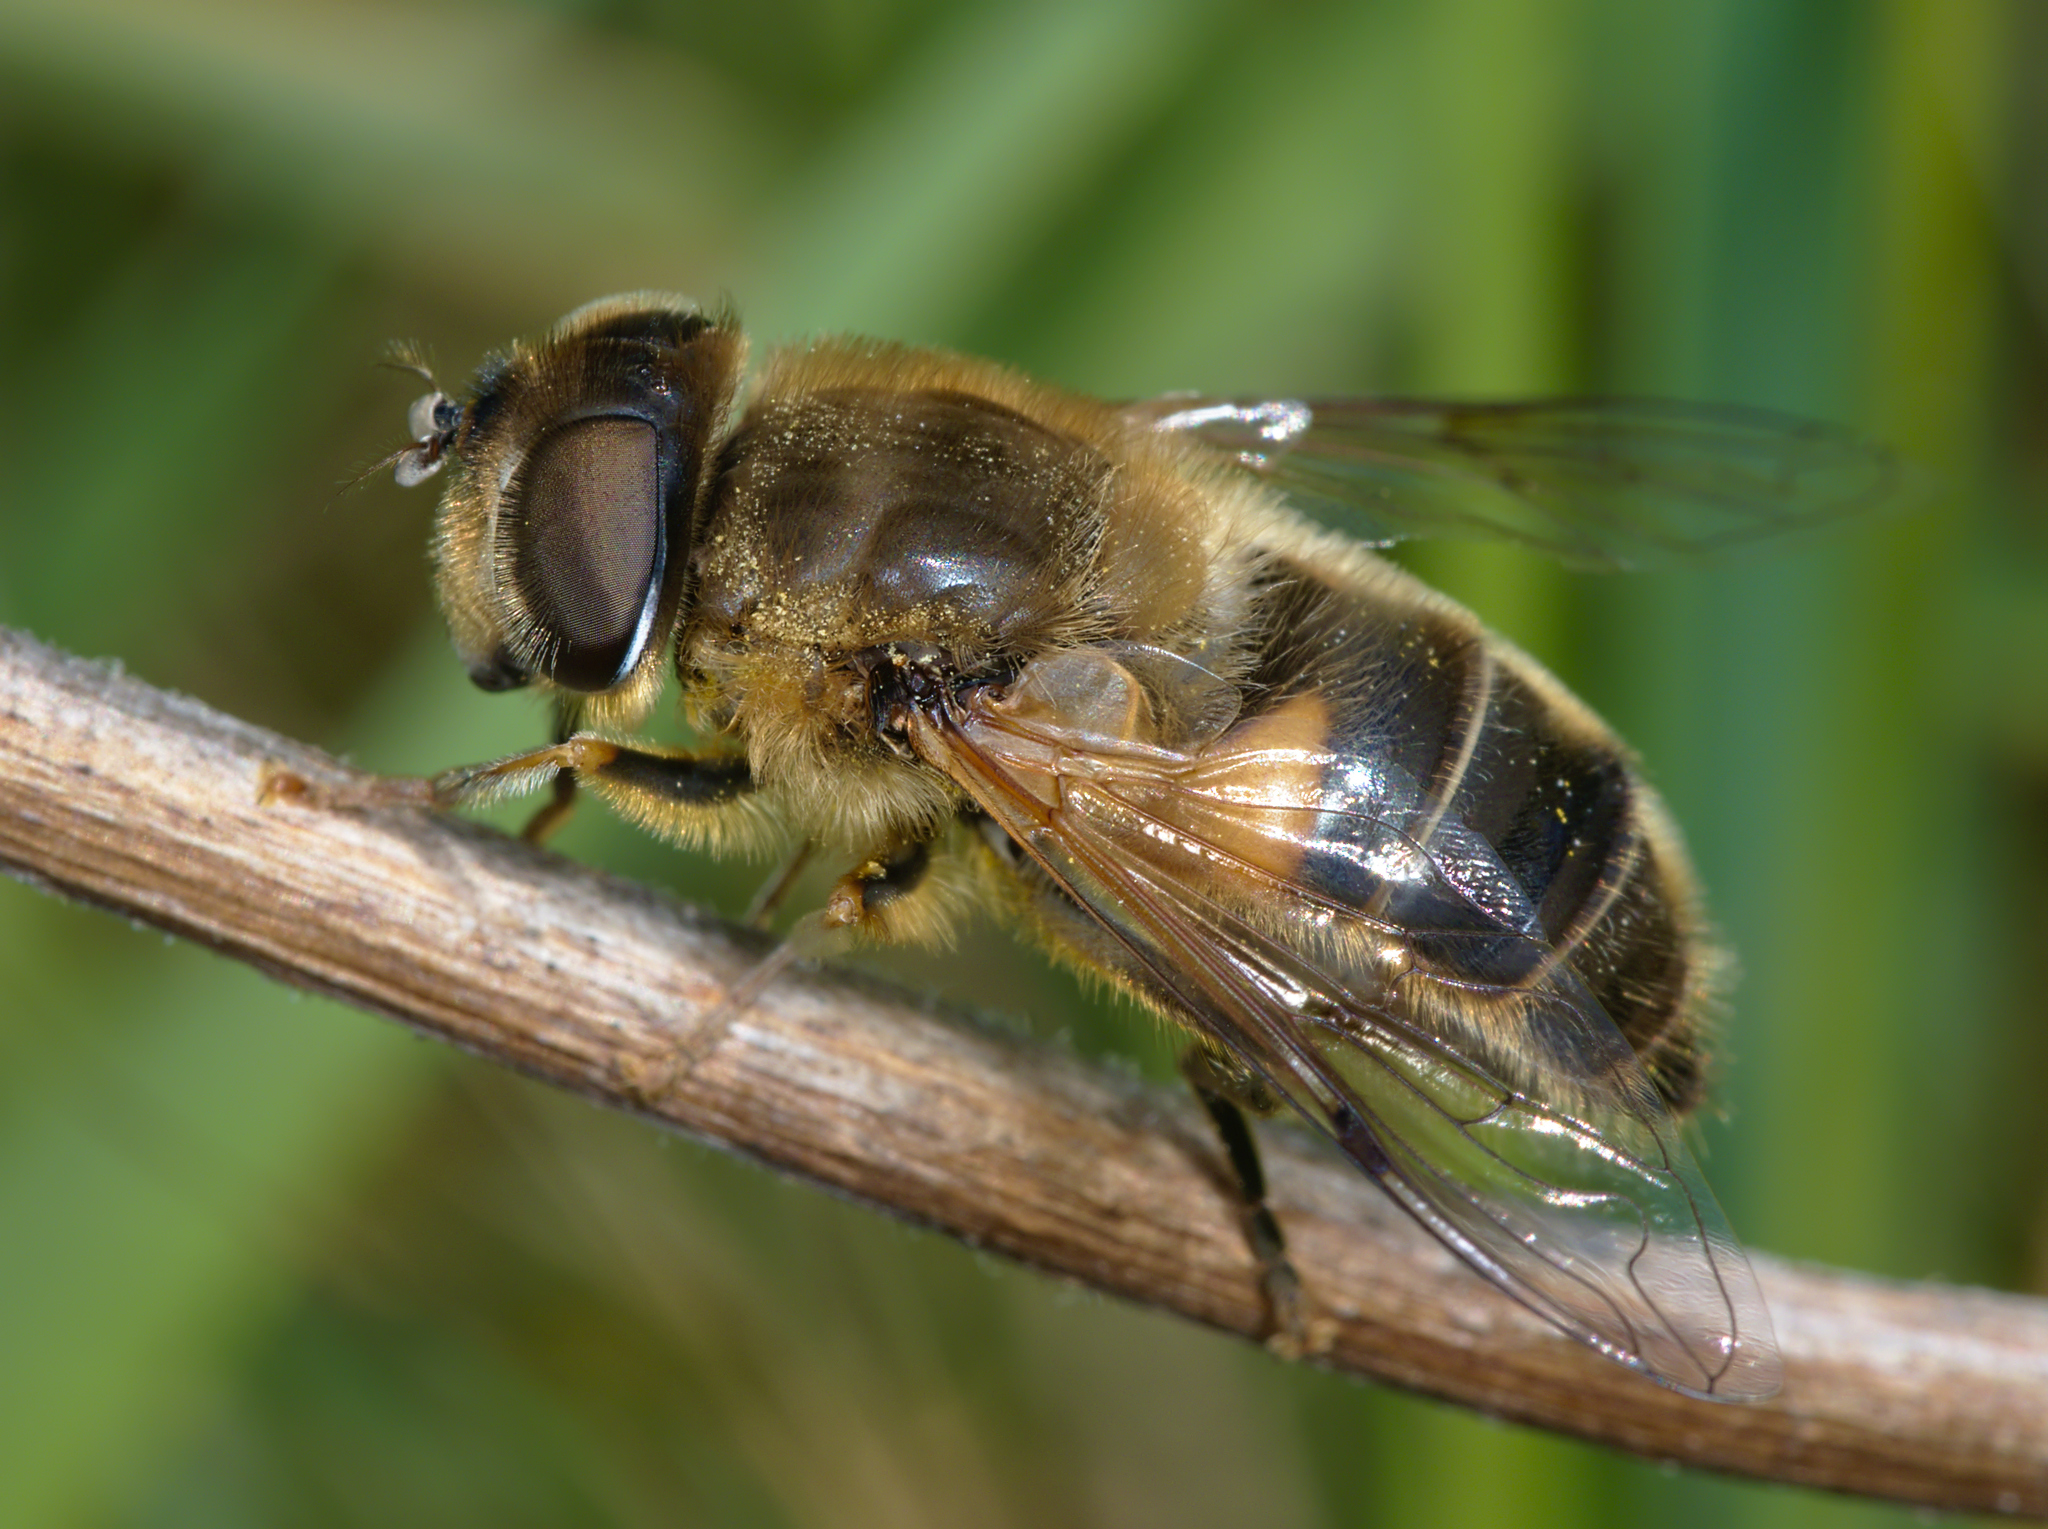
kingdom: Animalia
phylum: Arthropoda
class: Insecta
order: Diptera
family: Syrphidae
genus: Eristalis
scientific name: Eristalis pertinax
